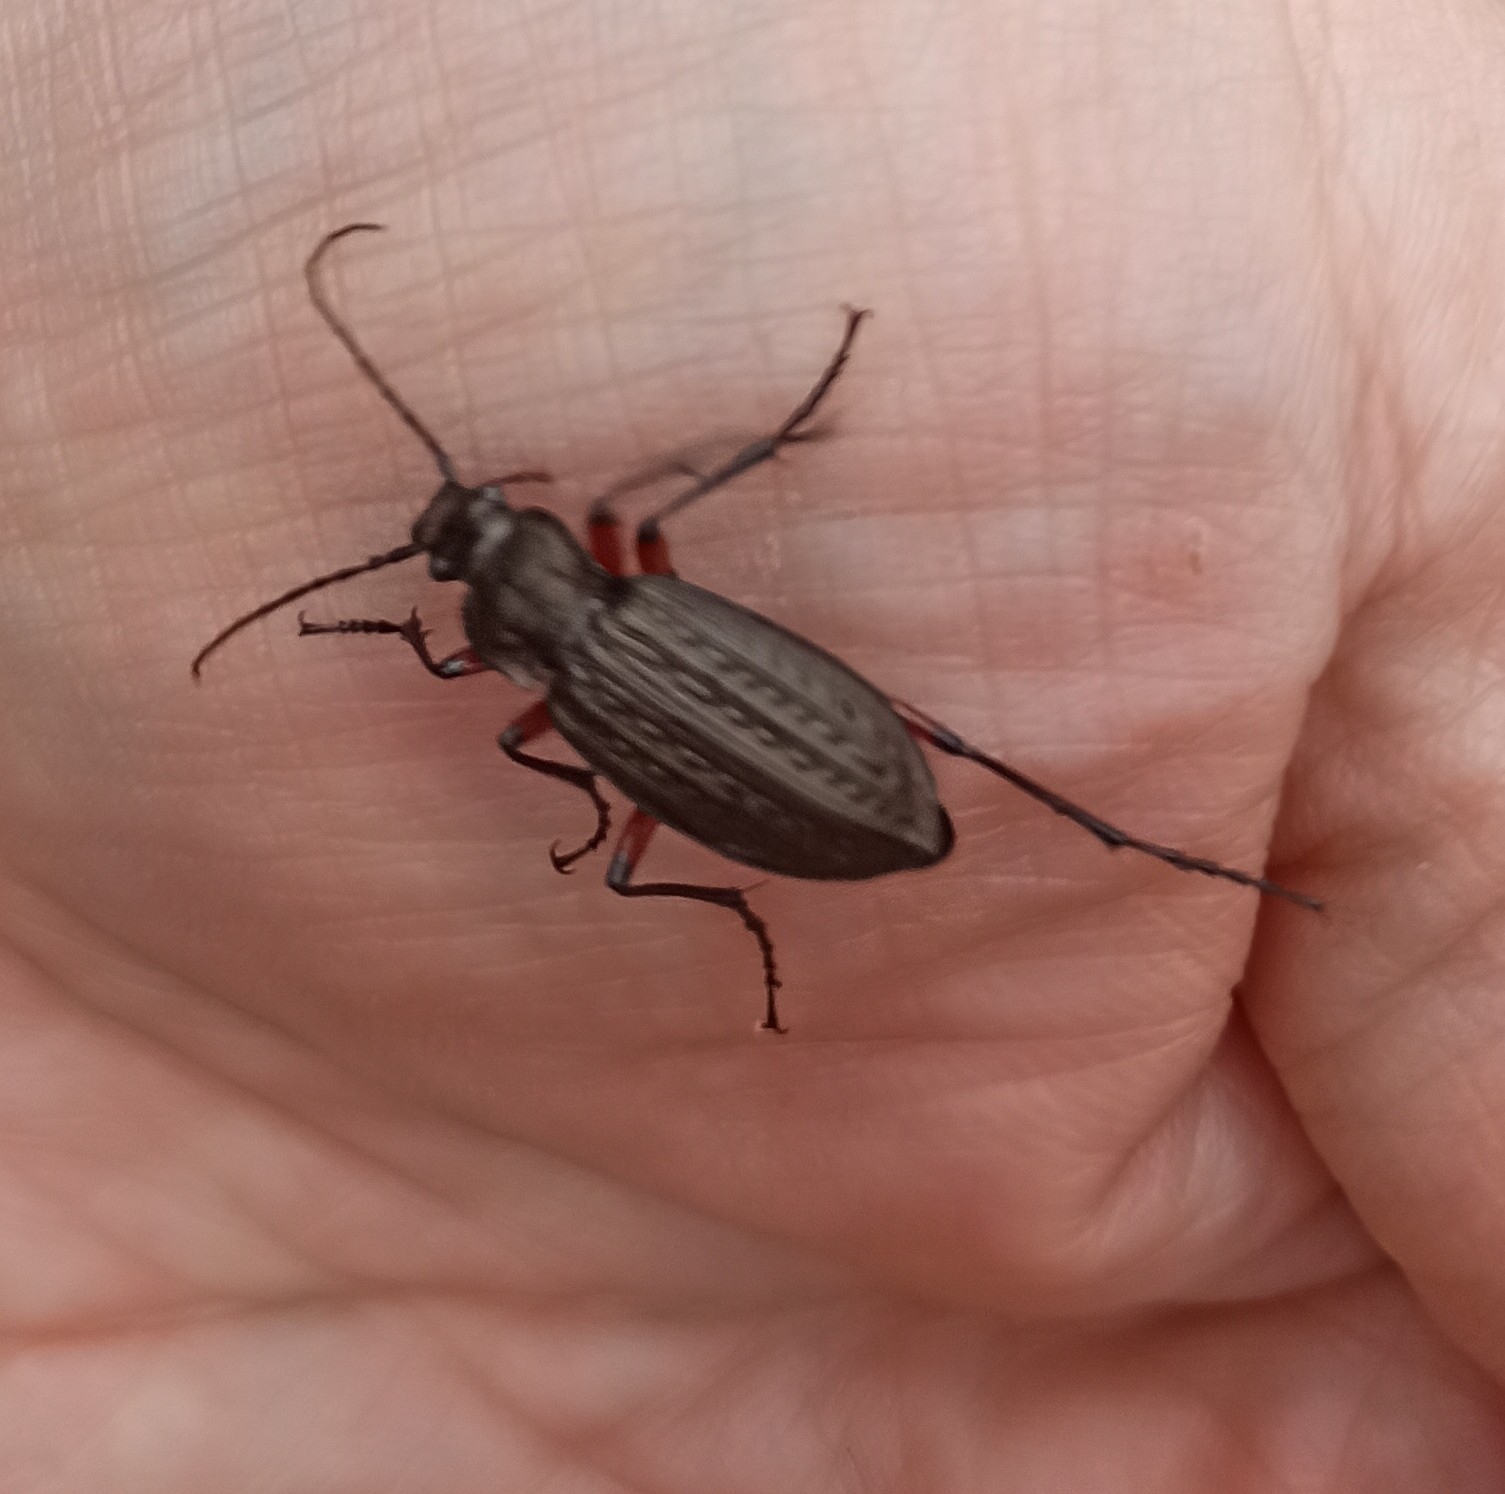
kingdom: Animalia
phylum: Arthropoda
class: Insecta
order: Coleoptera
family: Carabidae
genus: Carabus
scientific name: Carabus granulatus
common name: Granulate ground beetle
